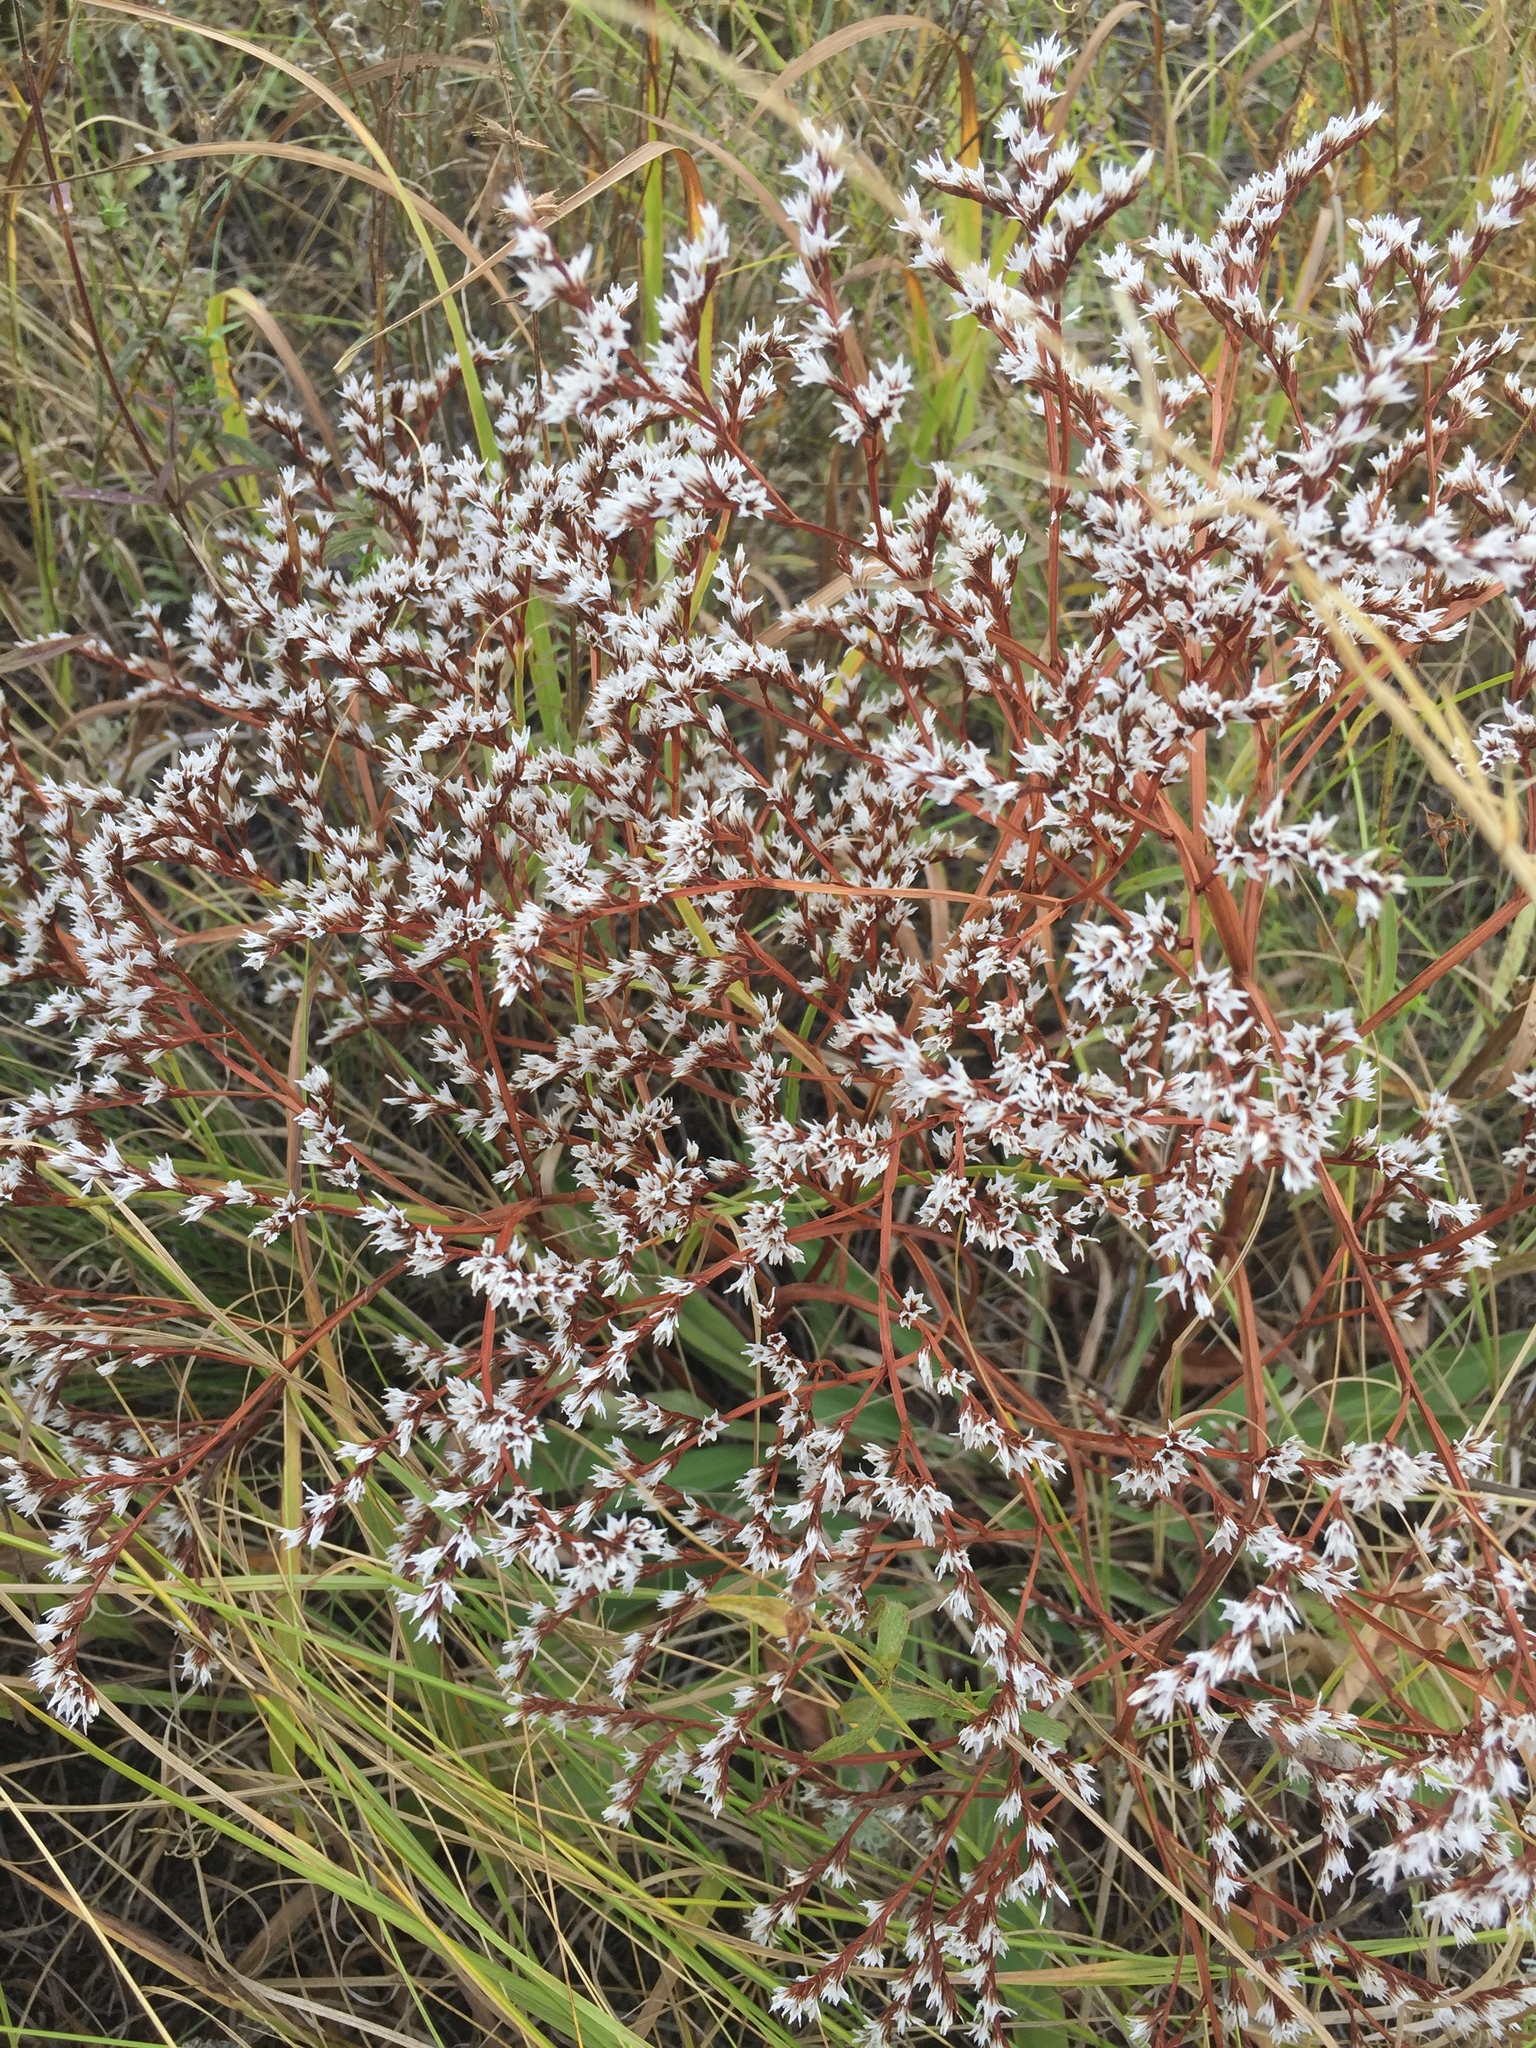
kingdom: Plantae
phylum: Tracheophyta
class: Magnoliopsida
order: Caryophyllales
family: Plumbaginaceae
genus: Goniolimon
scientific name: Goniolimon tataricum
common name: Statice
